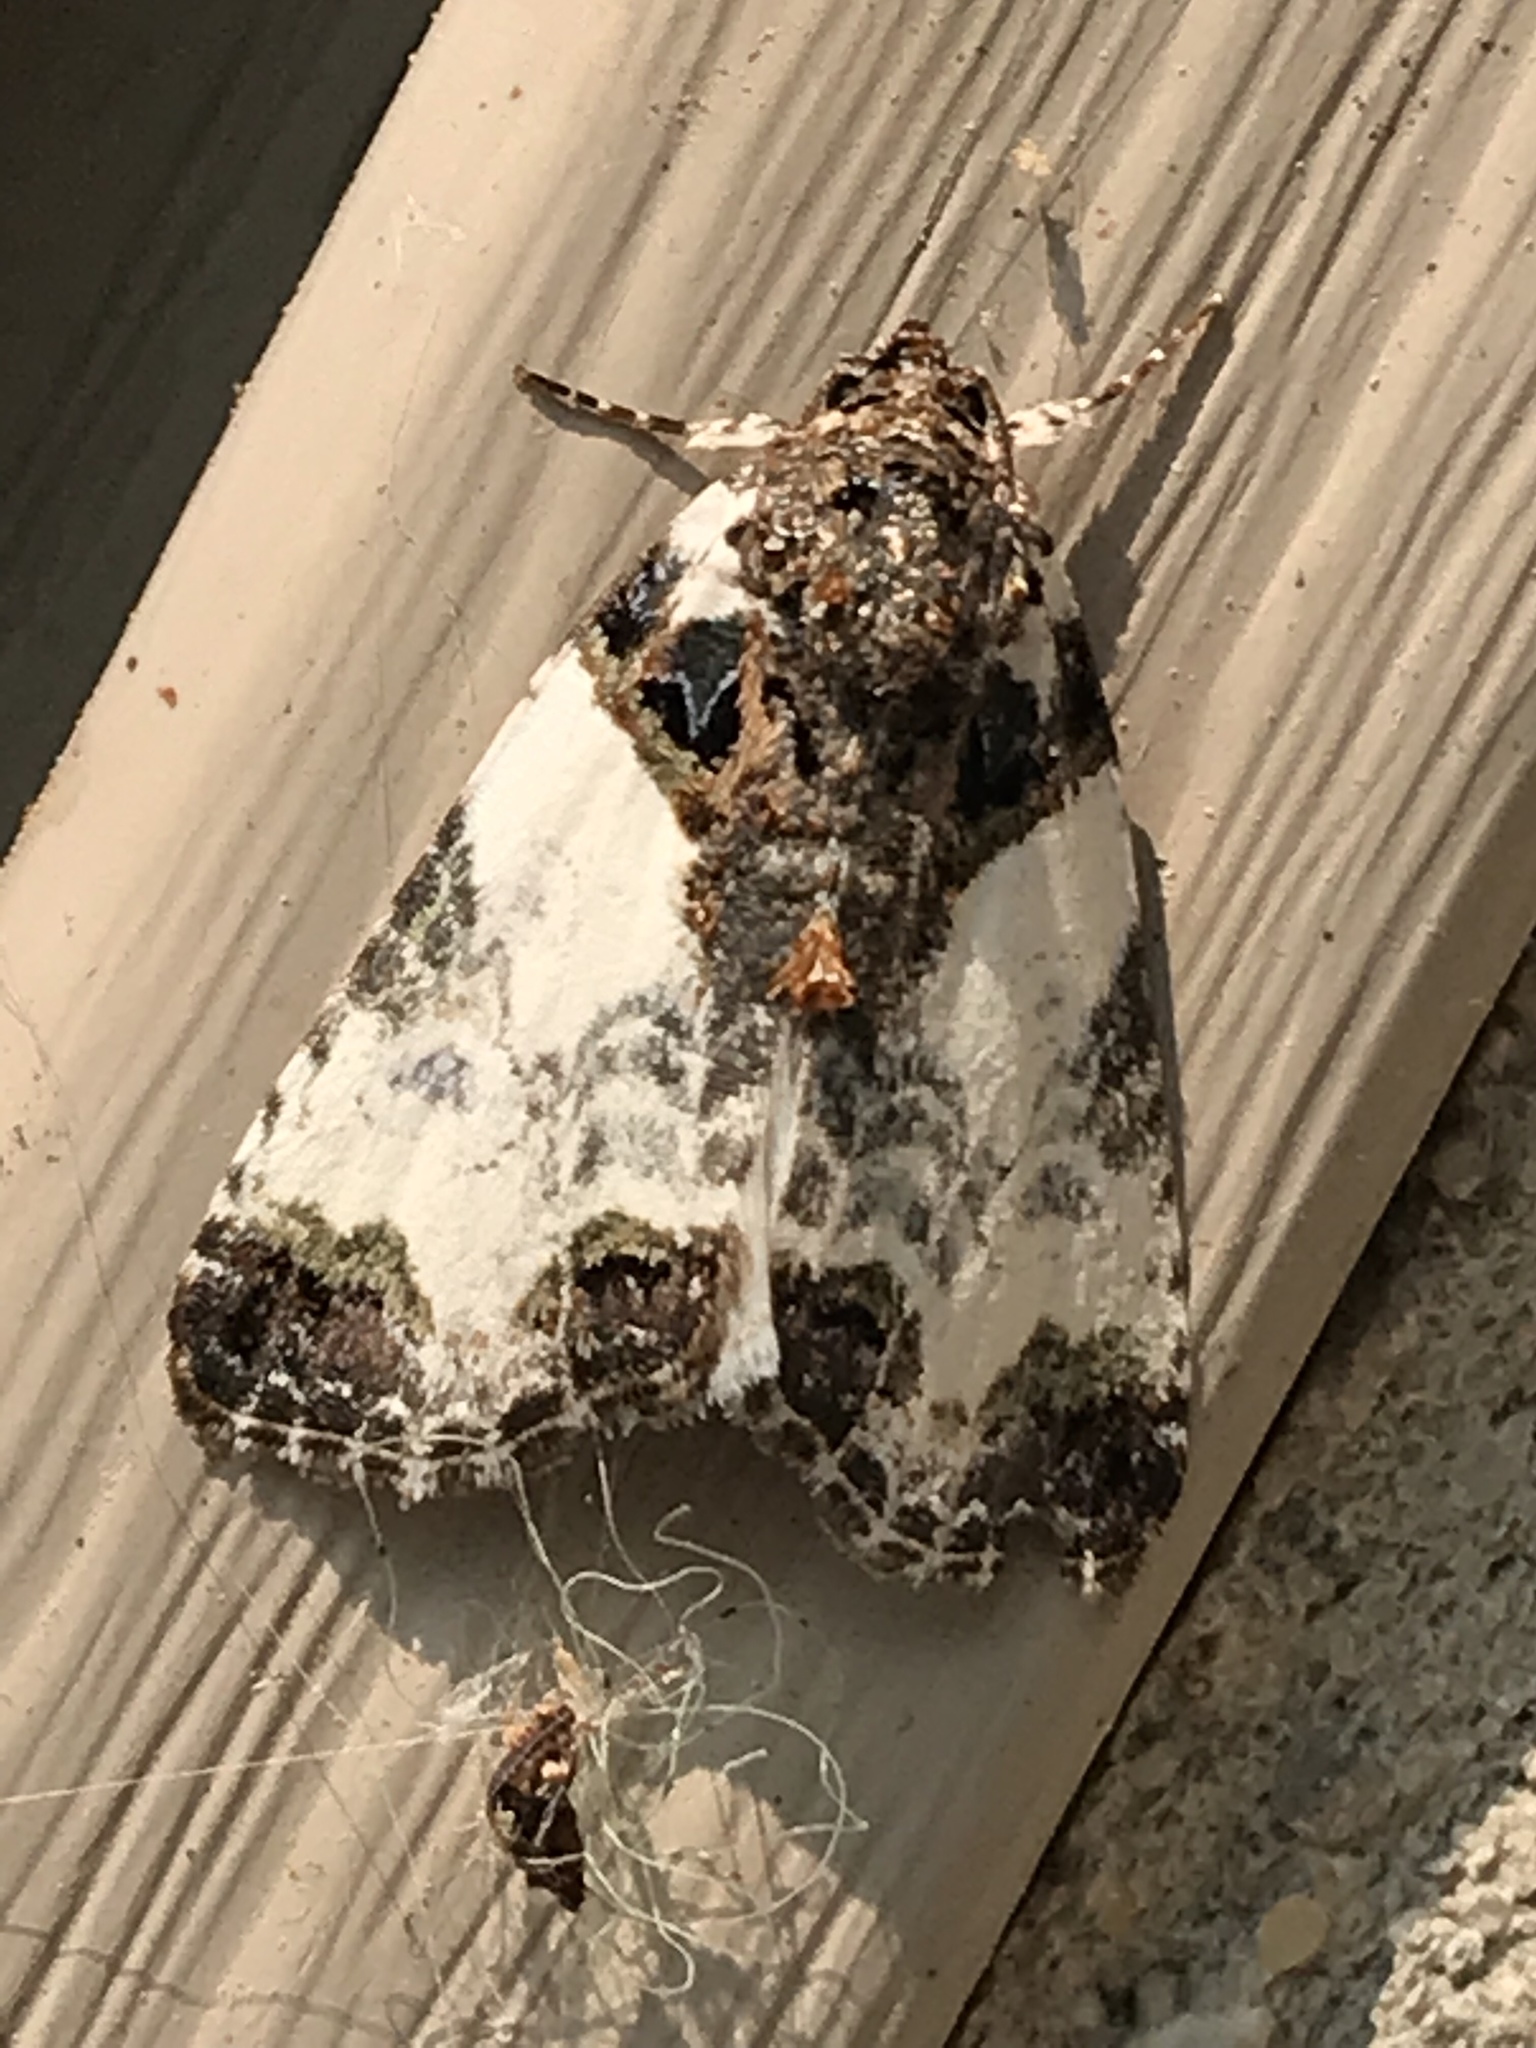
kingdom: Animalia
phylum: Arthropoda
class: Insecta
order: Lepidoptera
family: Noctuidae
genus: Cerma
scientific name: Cerma cerintha
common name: Tufted bird-dropping moth
